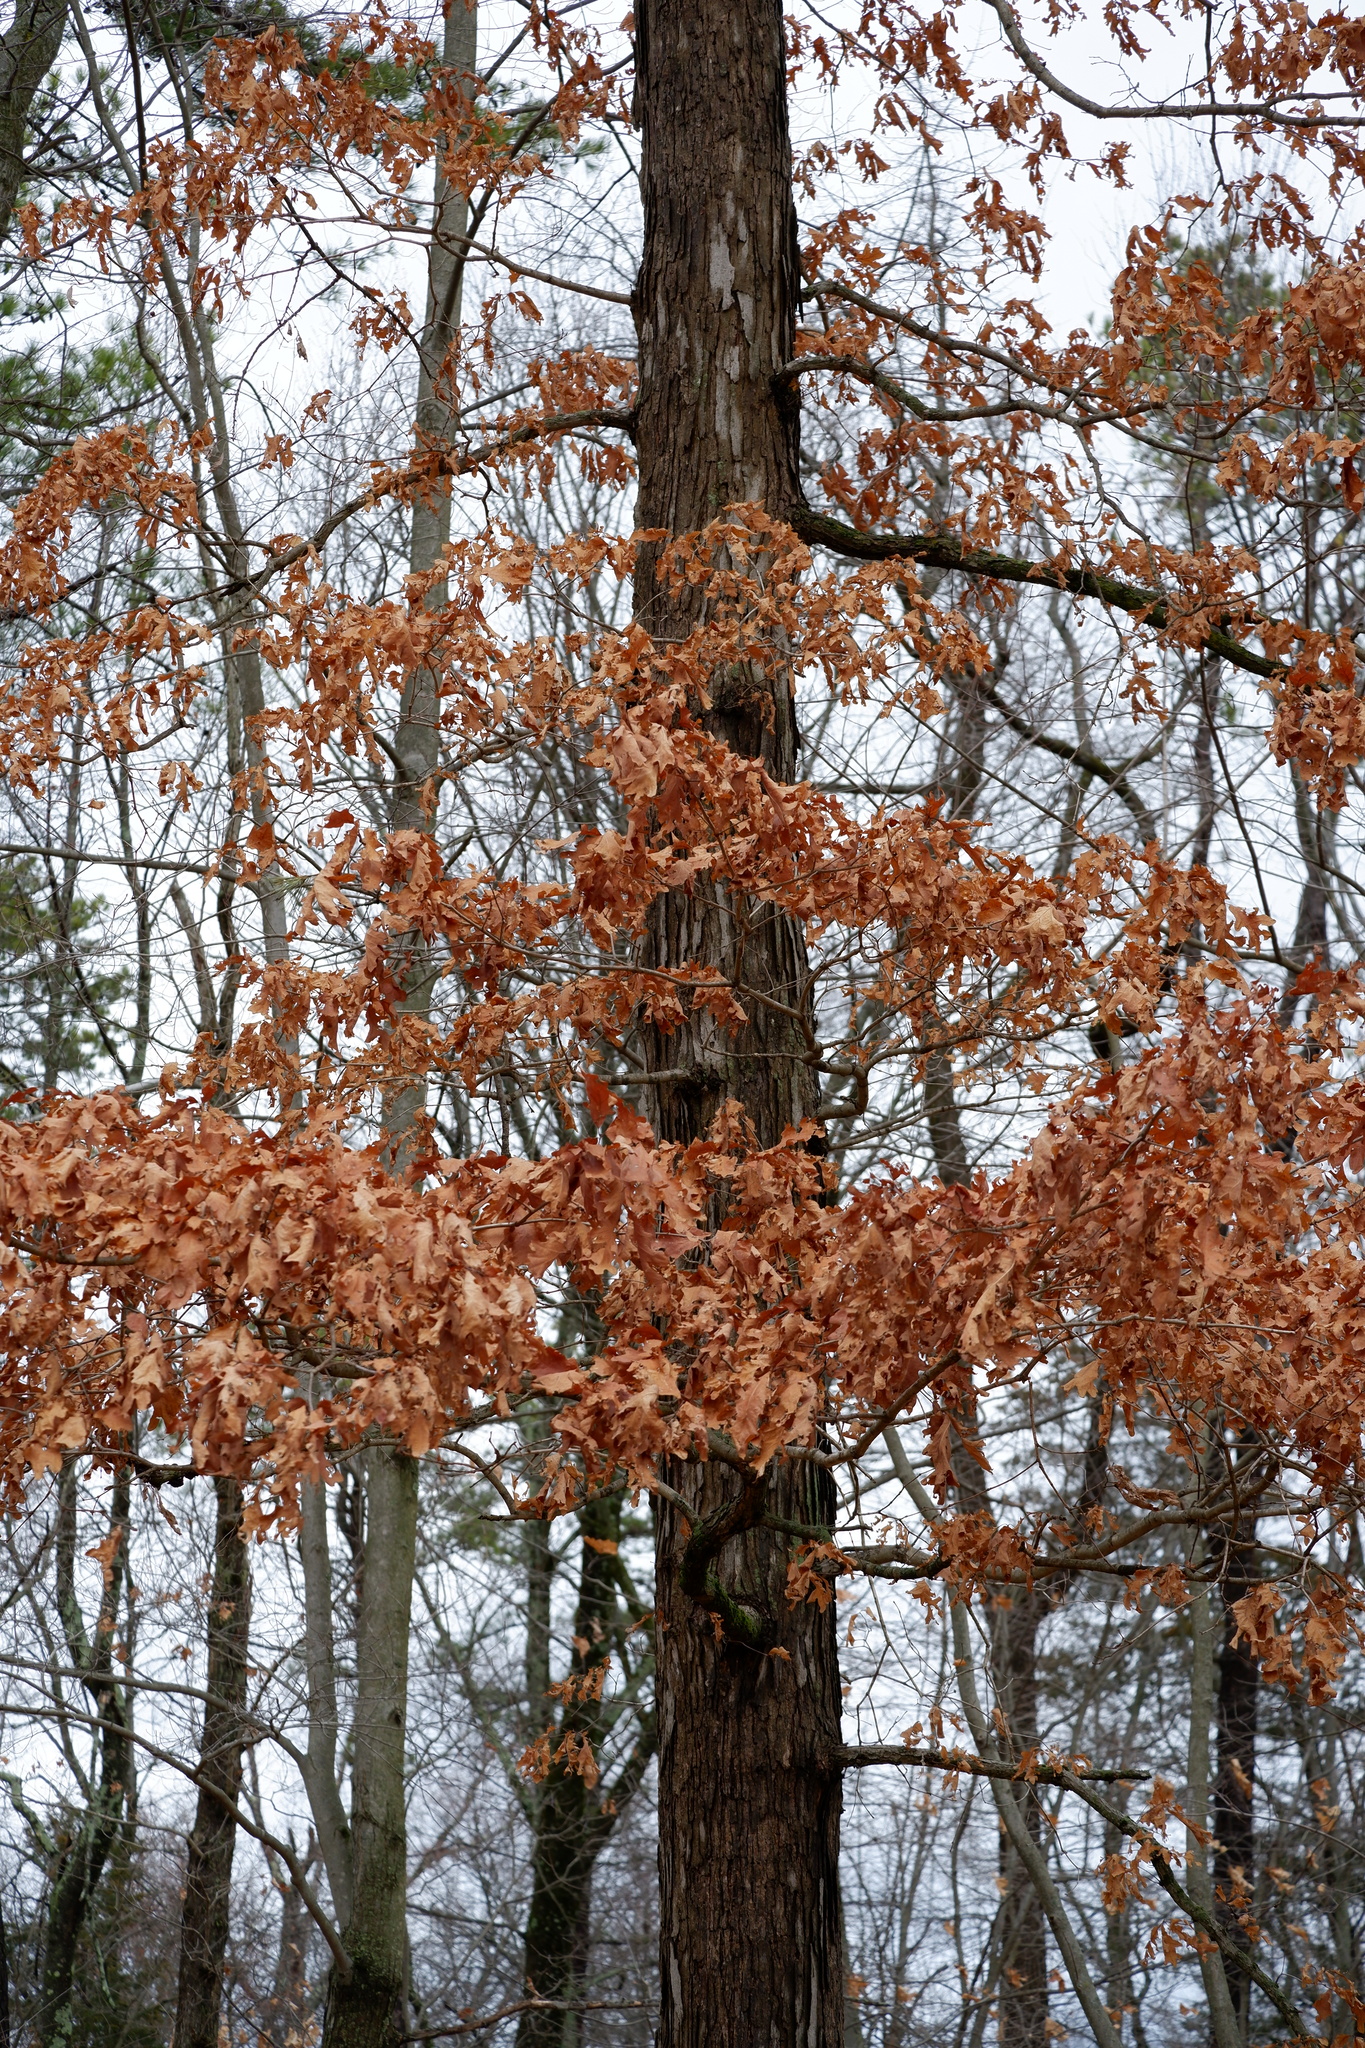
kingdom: Plantae
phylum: Tracheophyta
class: Magnoliopsida
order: Fagales
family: Fagaceae
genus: Quercus
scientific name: Quercus alba
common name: White oak
